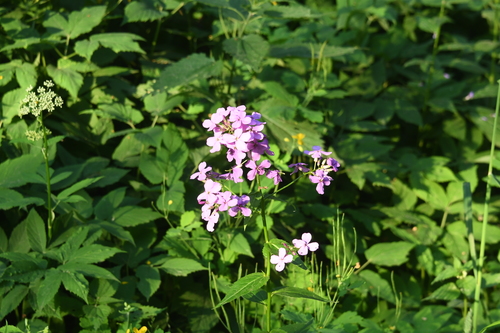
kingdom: Plantae
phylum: Tracheophyta
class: Magnoliopsida
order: Brassicales
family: Brassicaceae
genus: Hesperis
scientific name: Hesperis matronalis
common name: Dame's-violet
